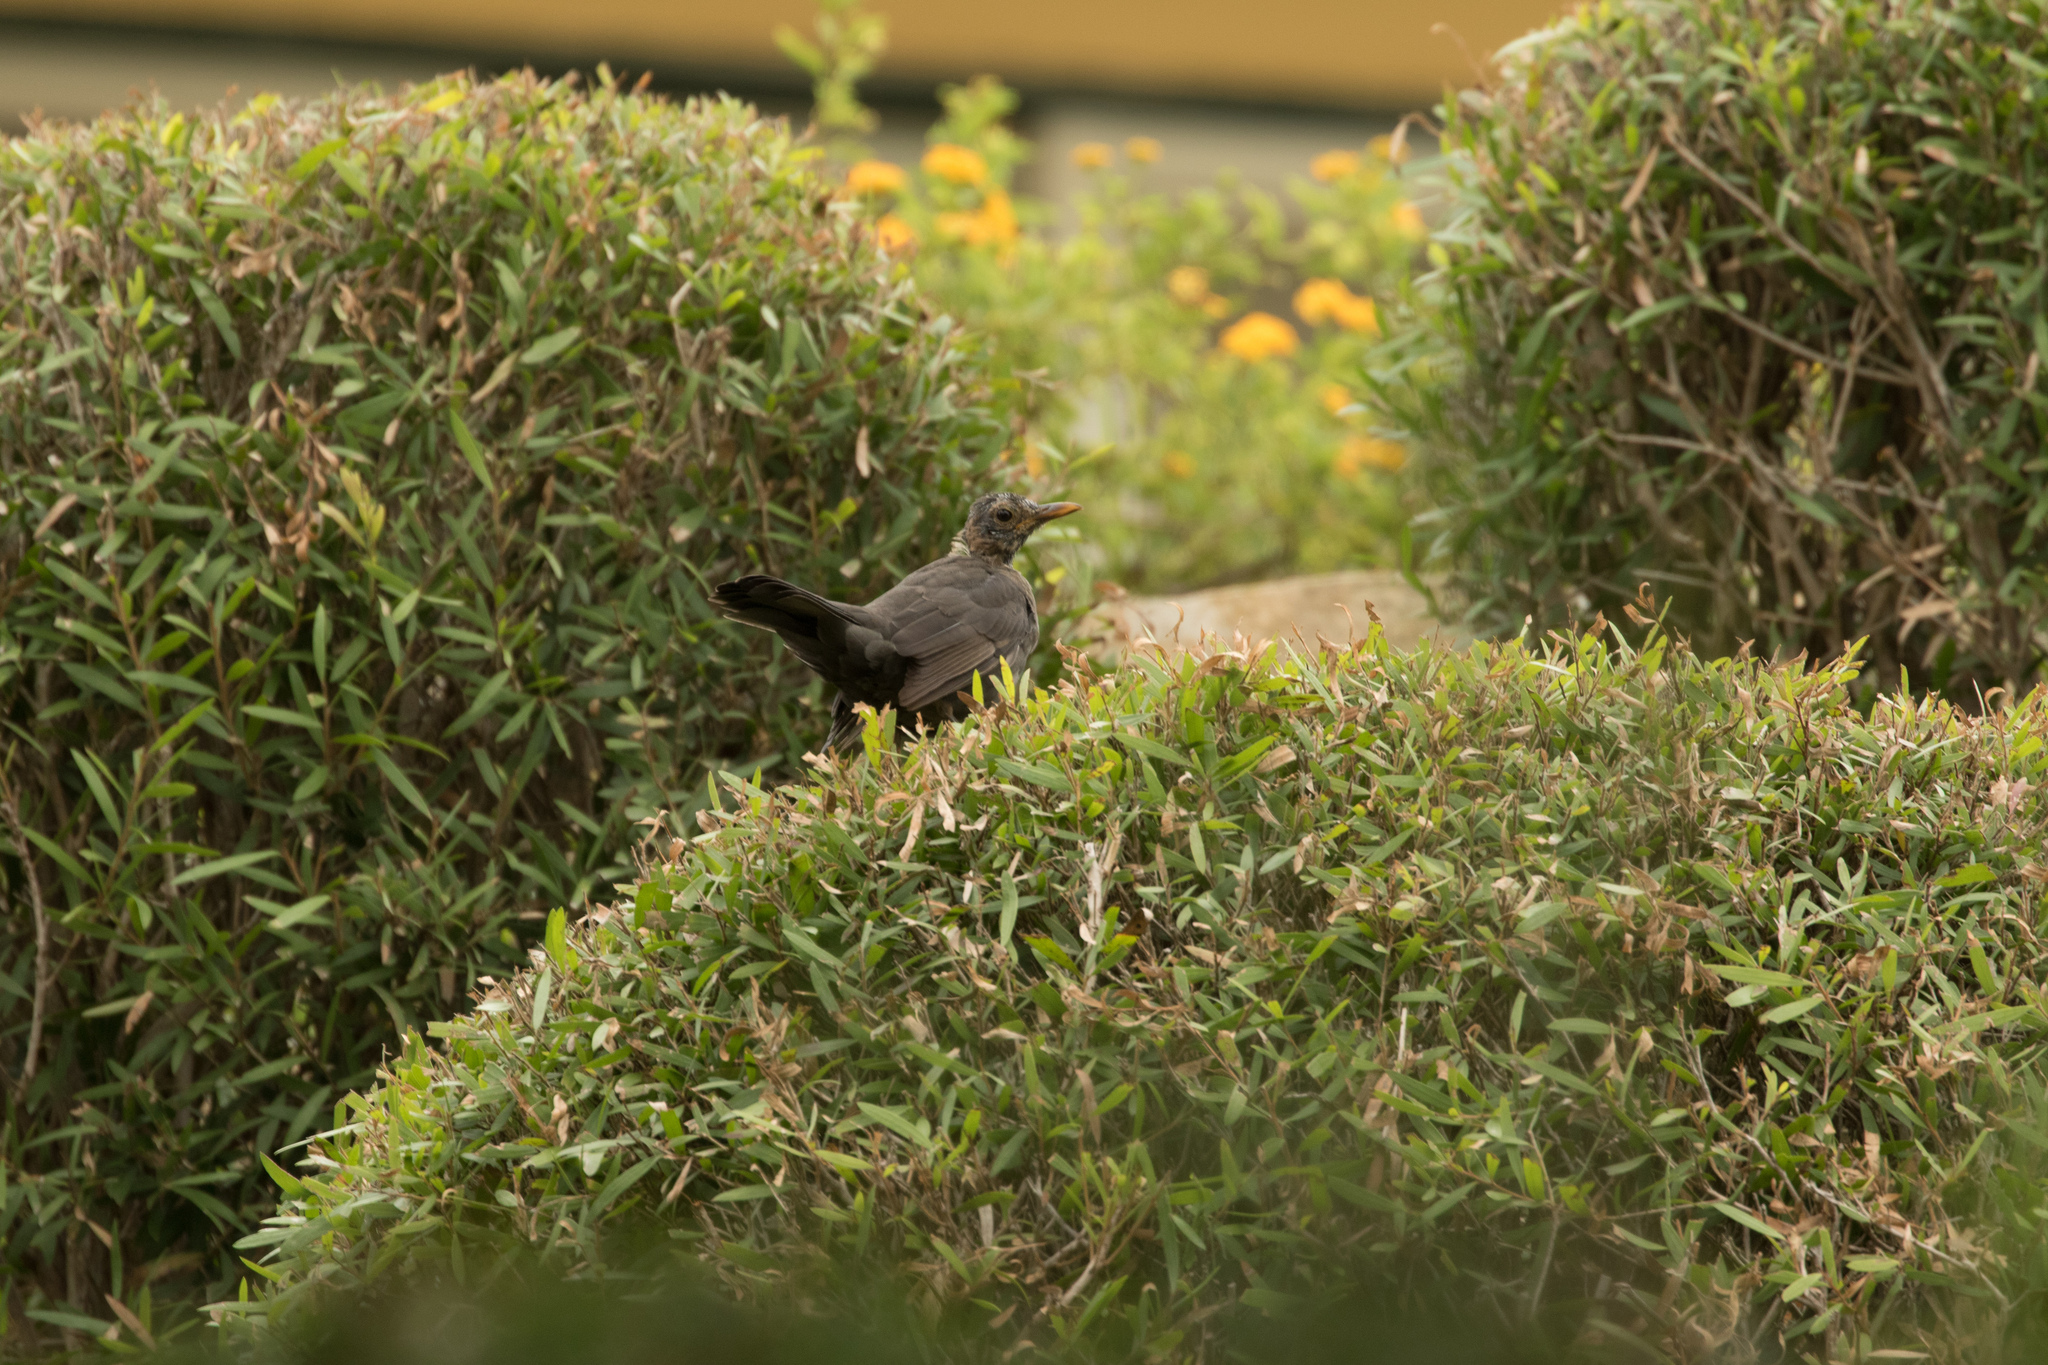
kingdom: Animalia
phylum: Chordata
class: Aves
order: Passeriformes
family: Turdidae
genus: Turdus
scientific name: Turdus merula
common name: Common blackbird
